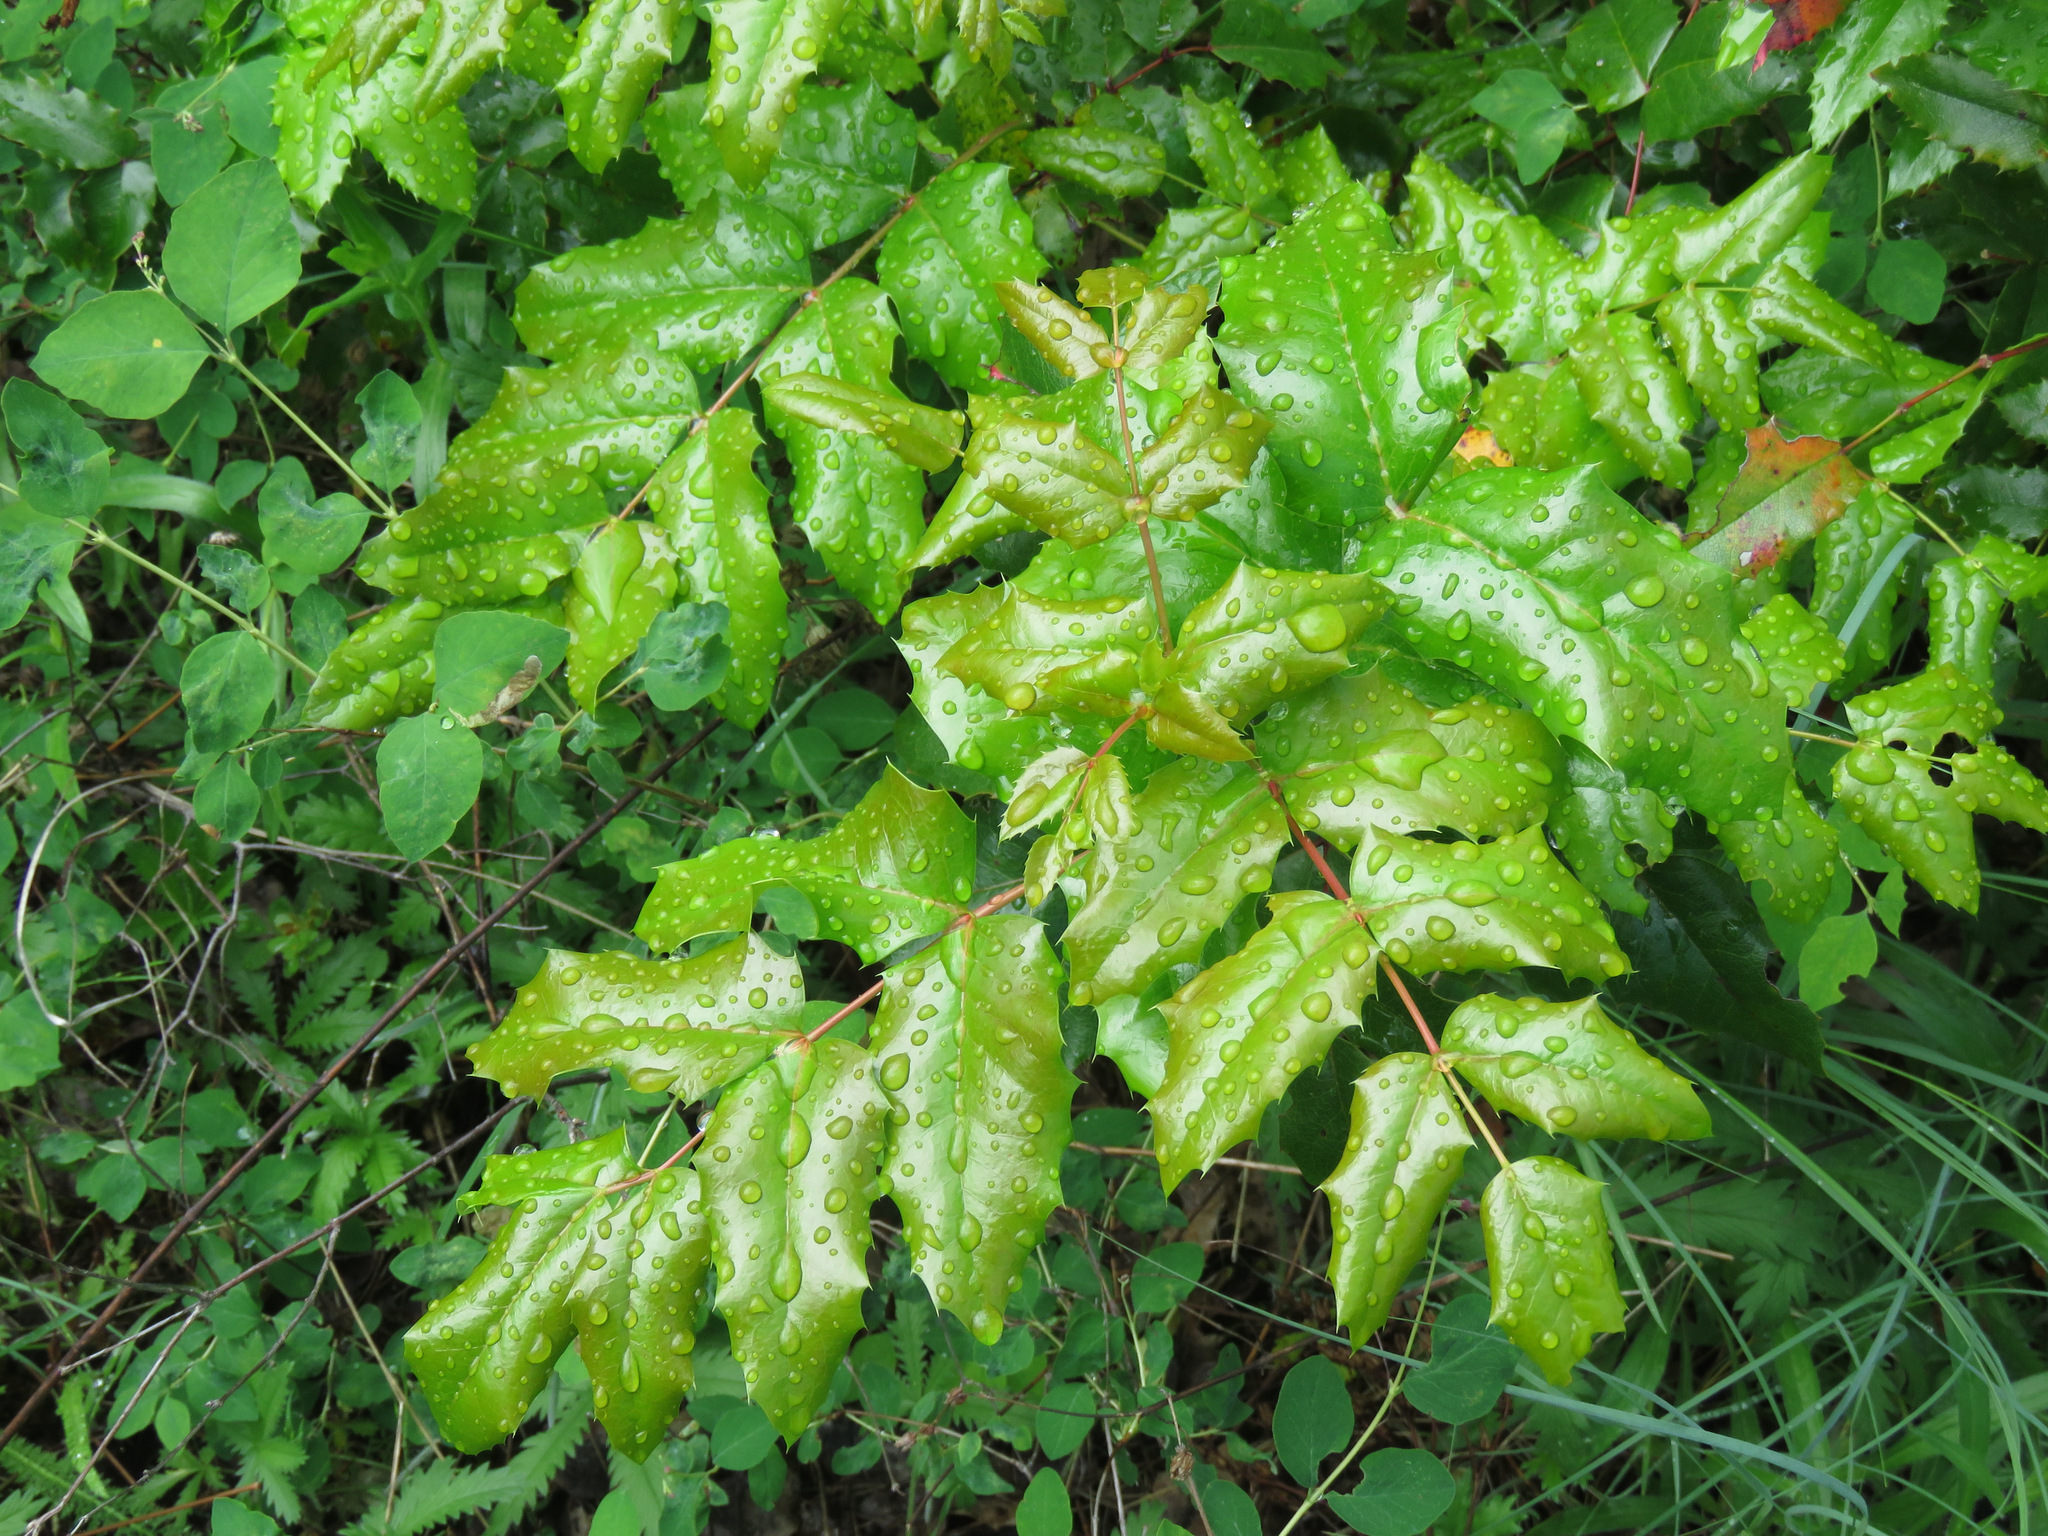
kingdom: Plantae
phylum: Tracheophyta
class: Magnoliopsida
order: Ranunculales
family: Berberidaceae
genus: Mahonia
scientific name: Mahonia aquifolium
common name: Oregon-grape
